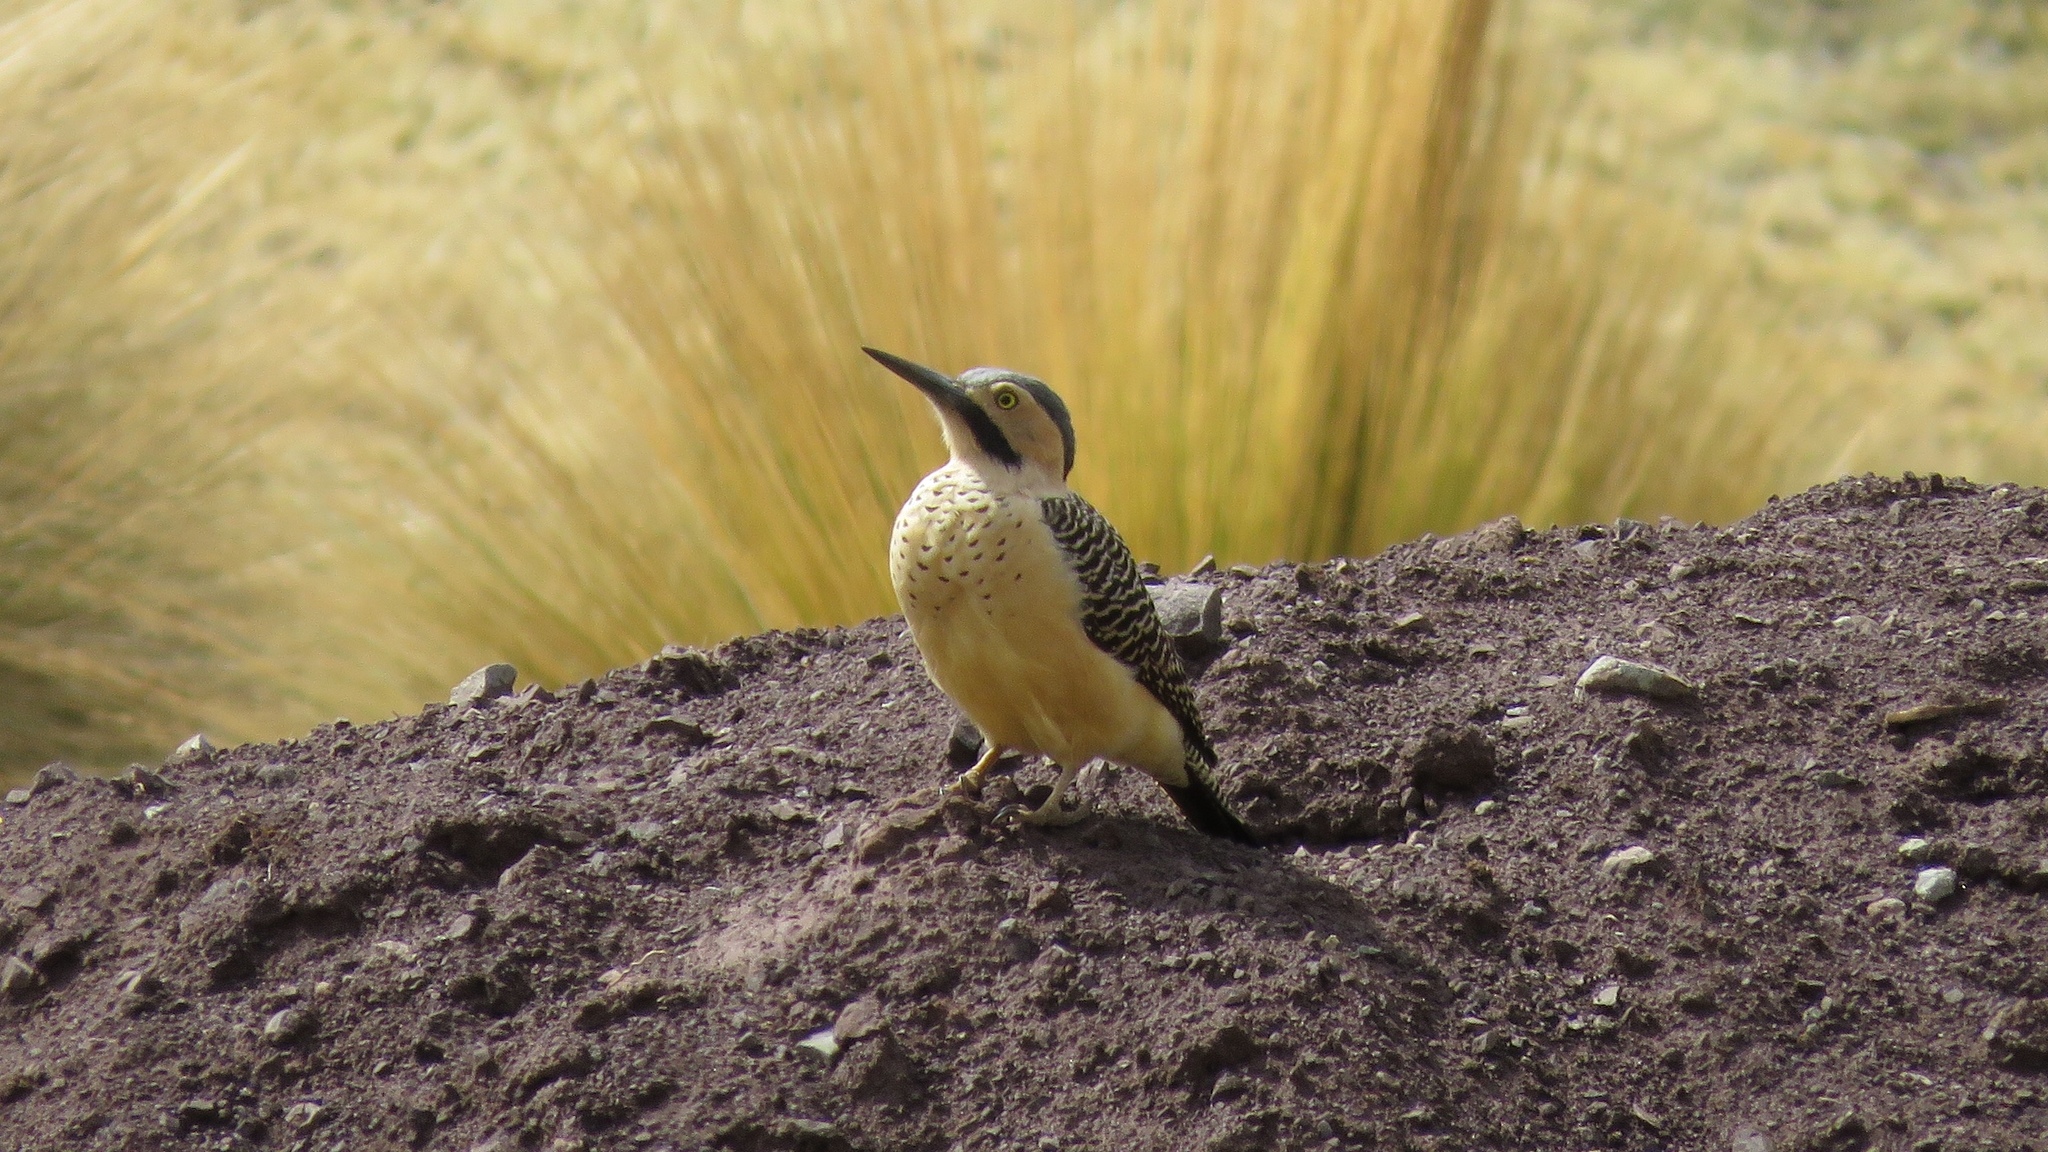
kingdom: Animalia
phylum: Chordata
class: Aves
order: Piciformes
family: Picidae
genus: Colaptes
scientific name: Colaptes rupicola
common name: Andean flicker
